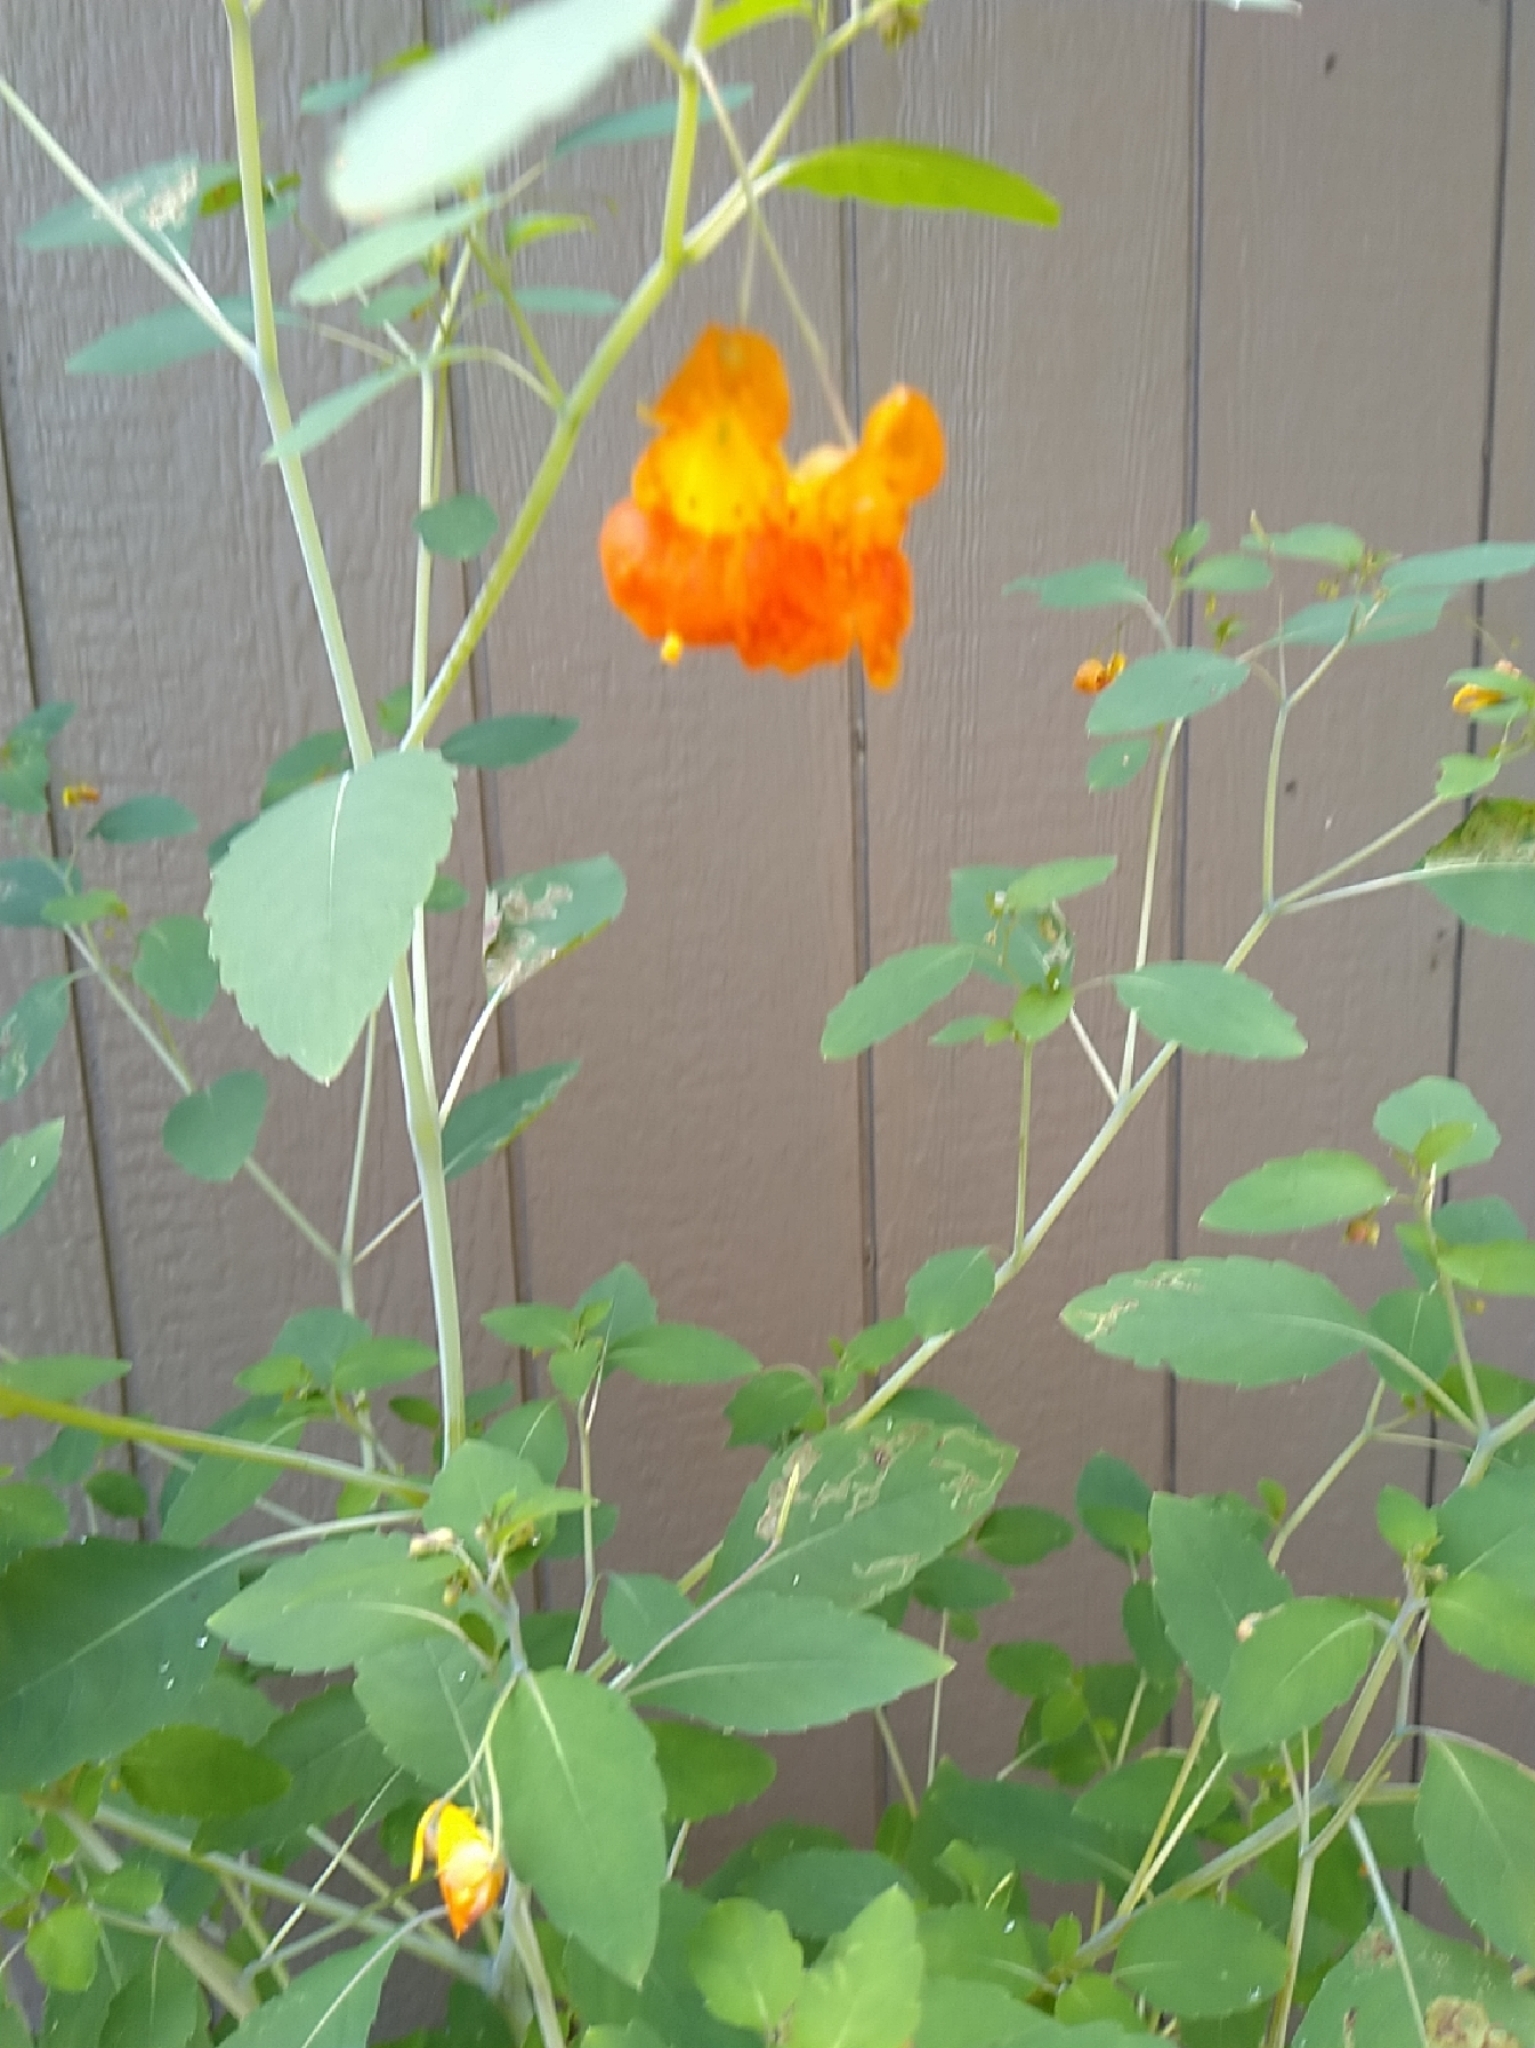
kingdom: Plantae
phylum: Tracheophyta
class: Magnoliopsida
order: Ericales
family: Balsaminaceae
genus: Impatiens
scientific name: Impatiens capensis
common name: Orange balsam
